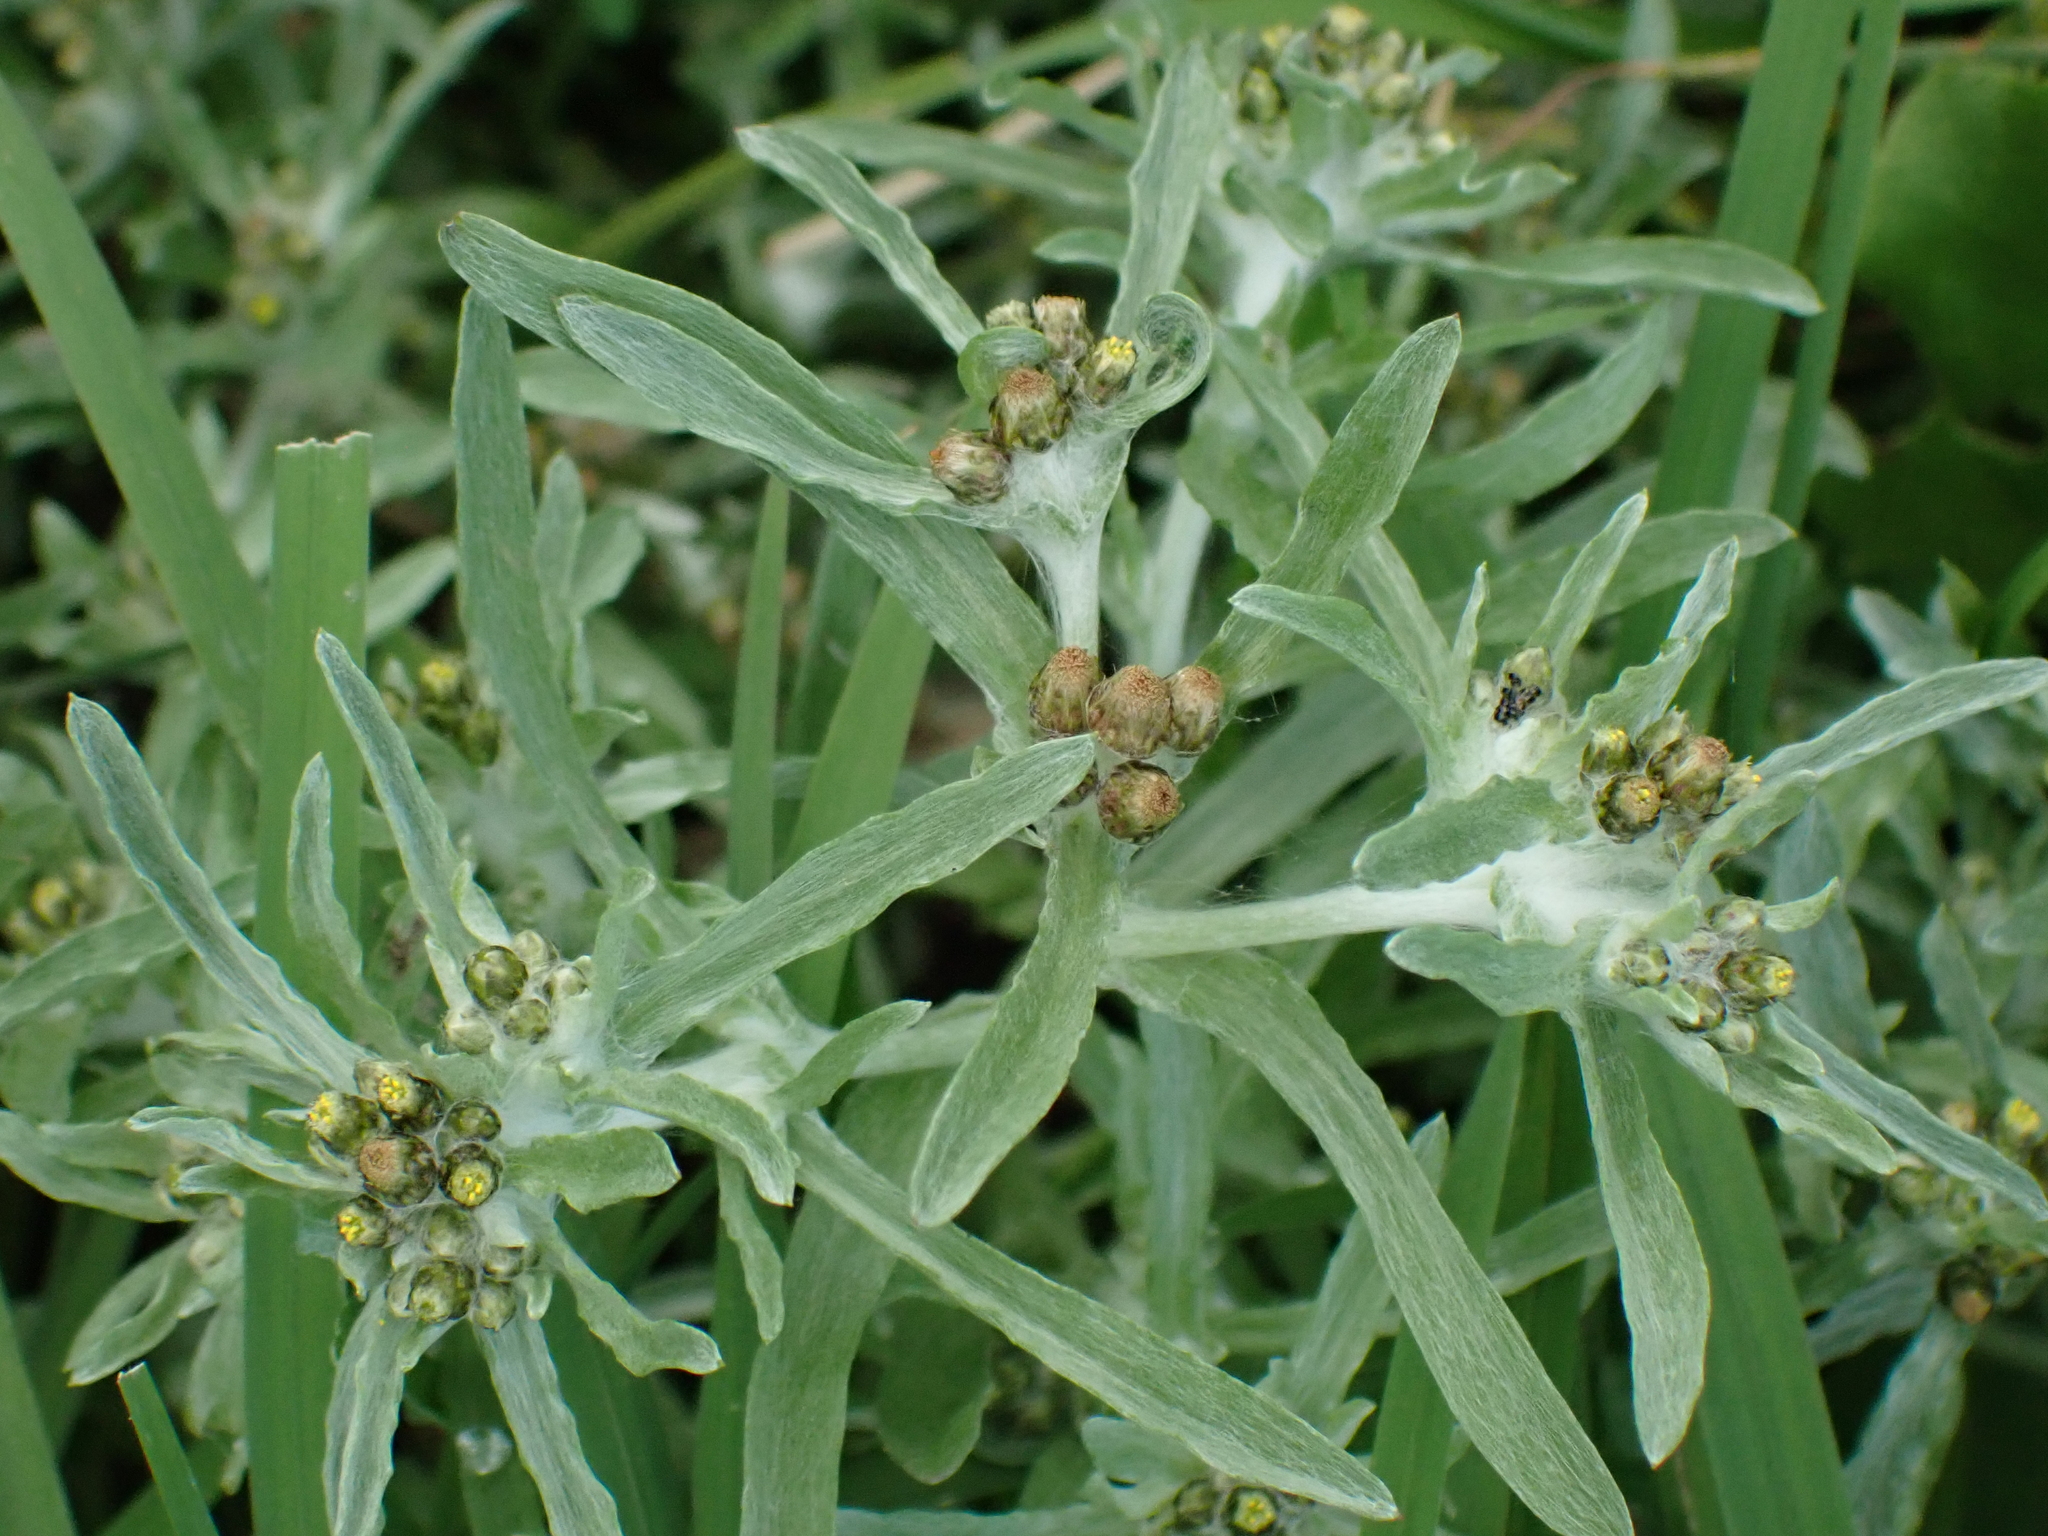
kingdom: Plantae
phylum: Tracheophyta
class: Magnoliopsida
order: Asterales
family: Asteraceae
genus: Gnaphalium
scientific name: Gnaphalium uliginosum
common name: Marsh cudweed
